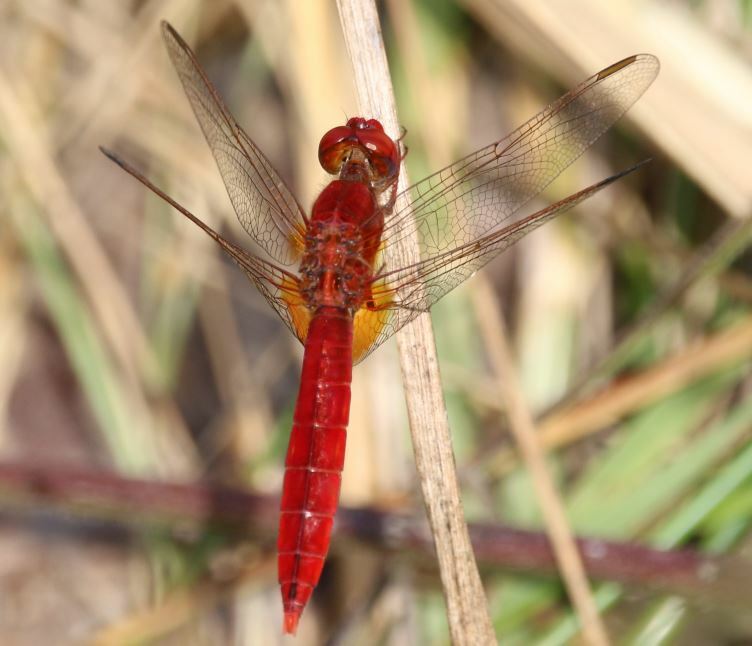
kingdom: Animalia
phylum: Arthropoda
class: Insecta
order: Odonata
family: Libellulidae
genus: Crocothemis
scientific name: Crocothemis erythraea
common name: Scarlet dragonfly
